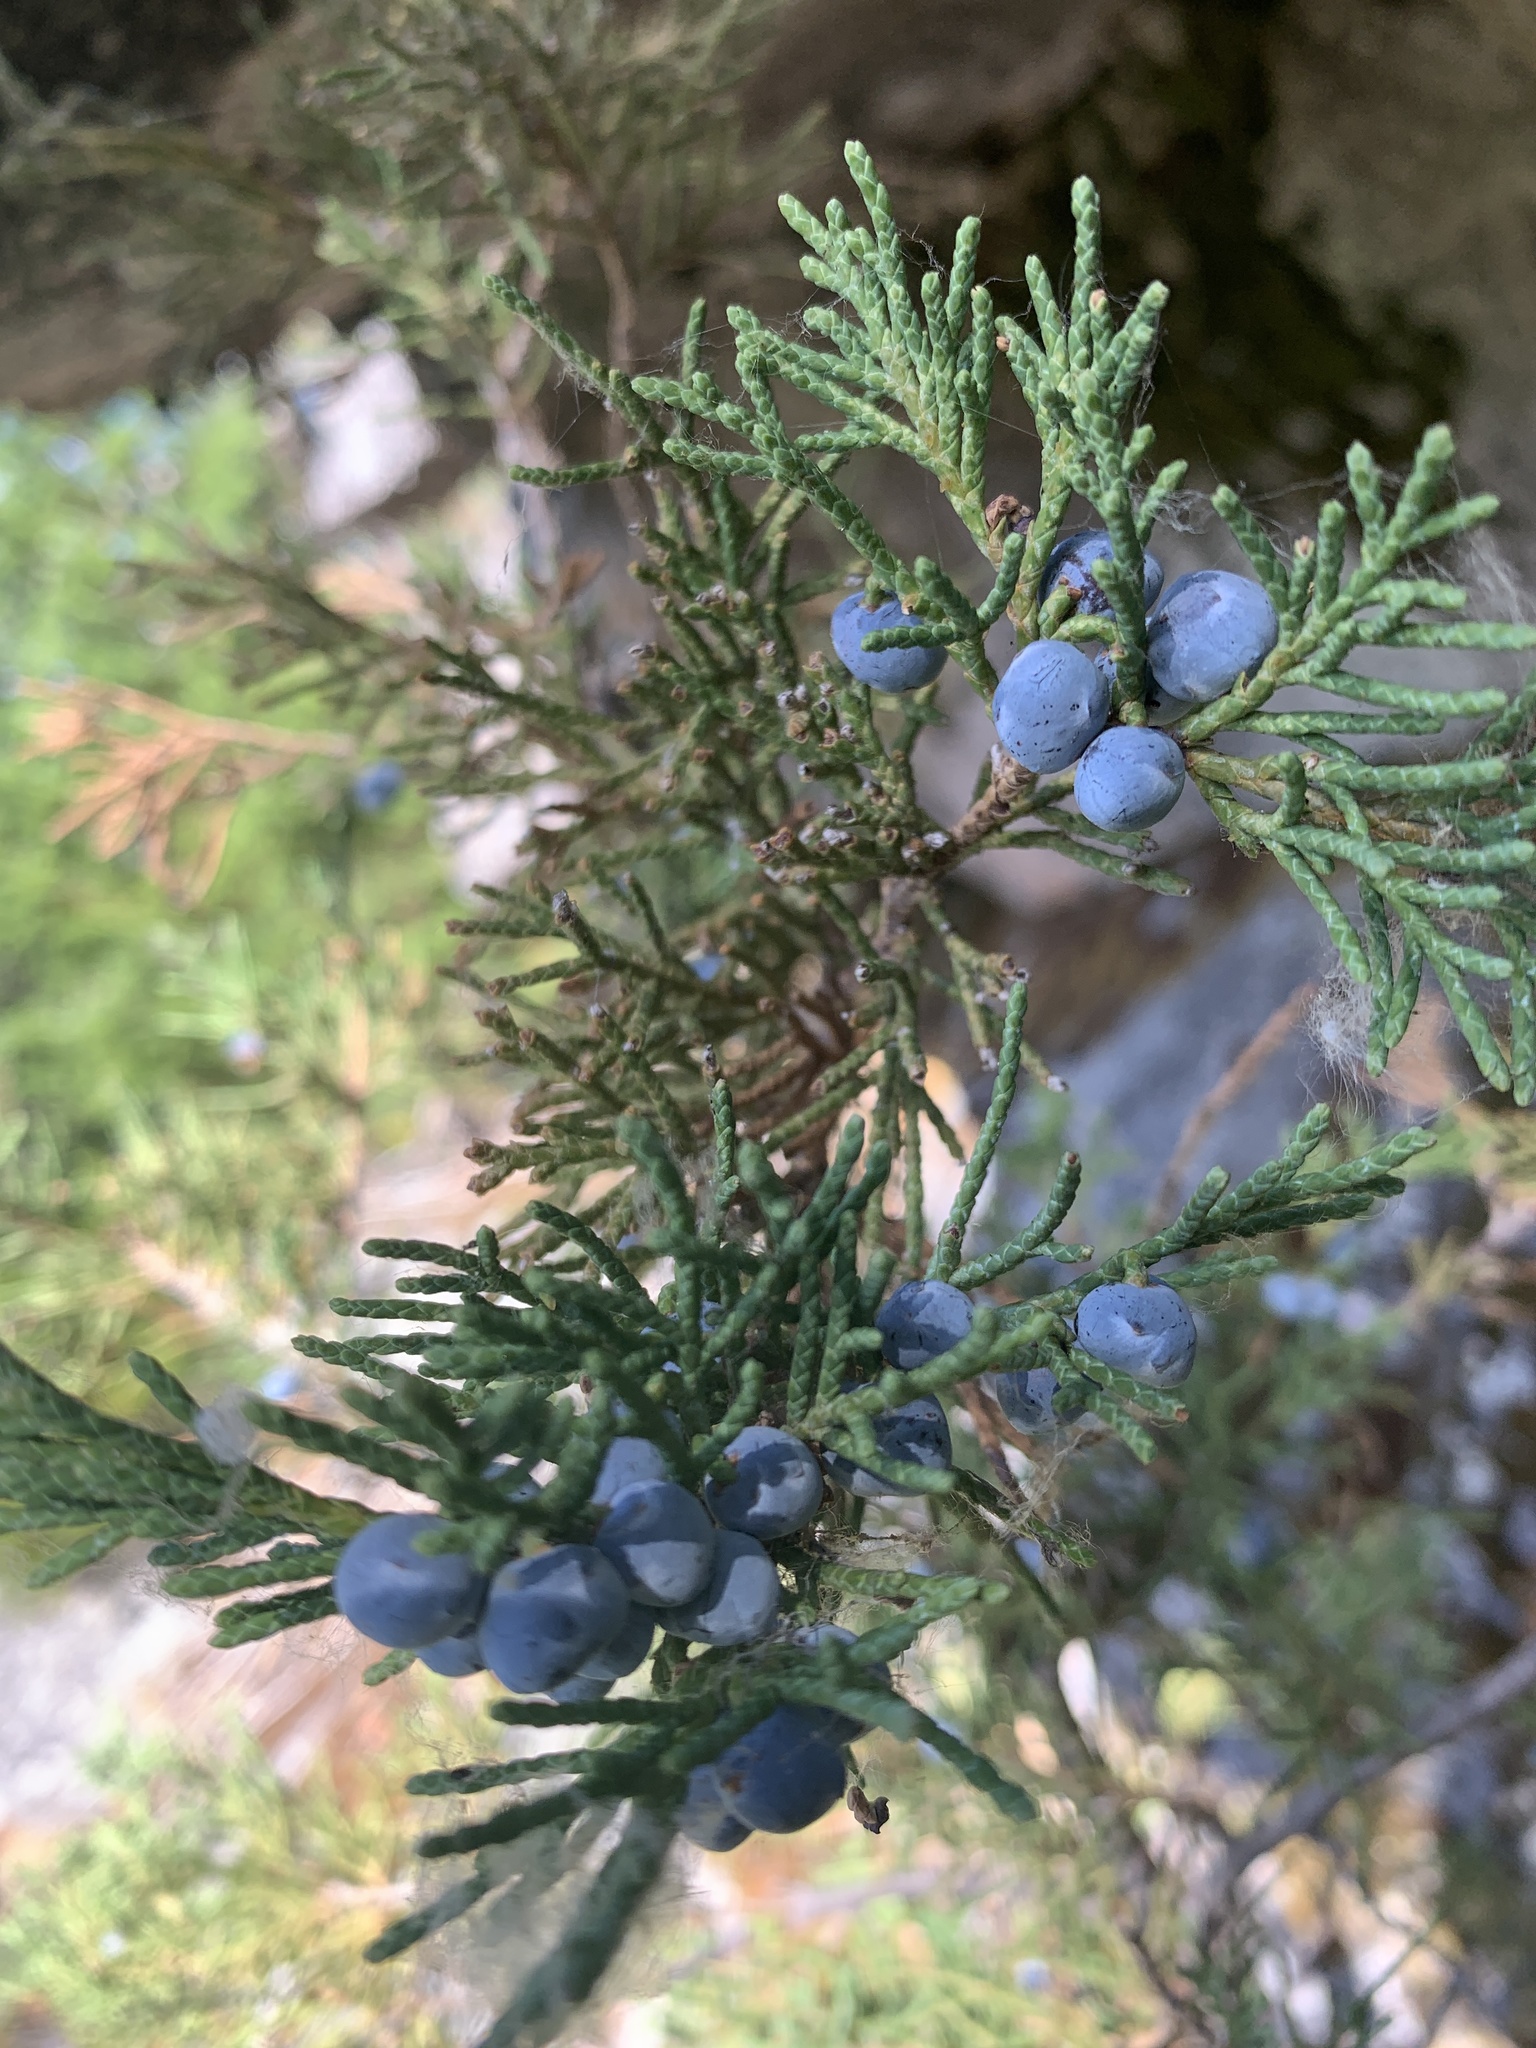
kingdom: Plantae
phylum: Tracheophyta
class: Pinopsida
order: Pinales
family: Cupressaceae
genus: Juniperus
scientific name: Juniperus scopulorum
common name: Rocky mountain juniper
